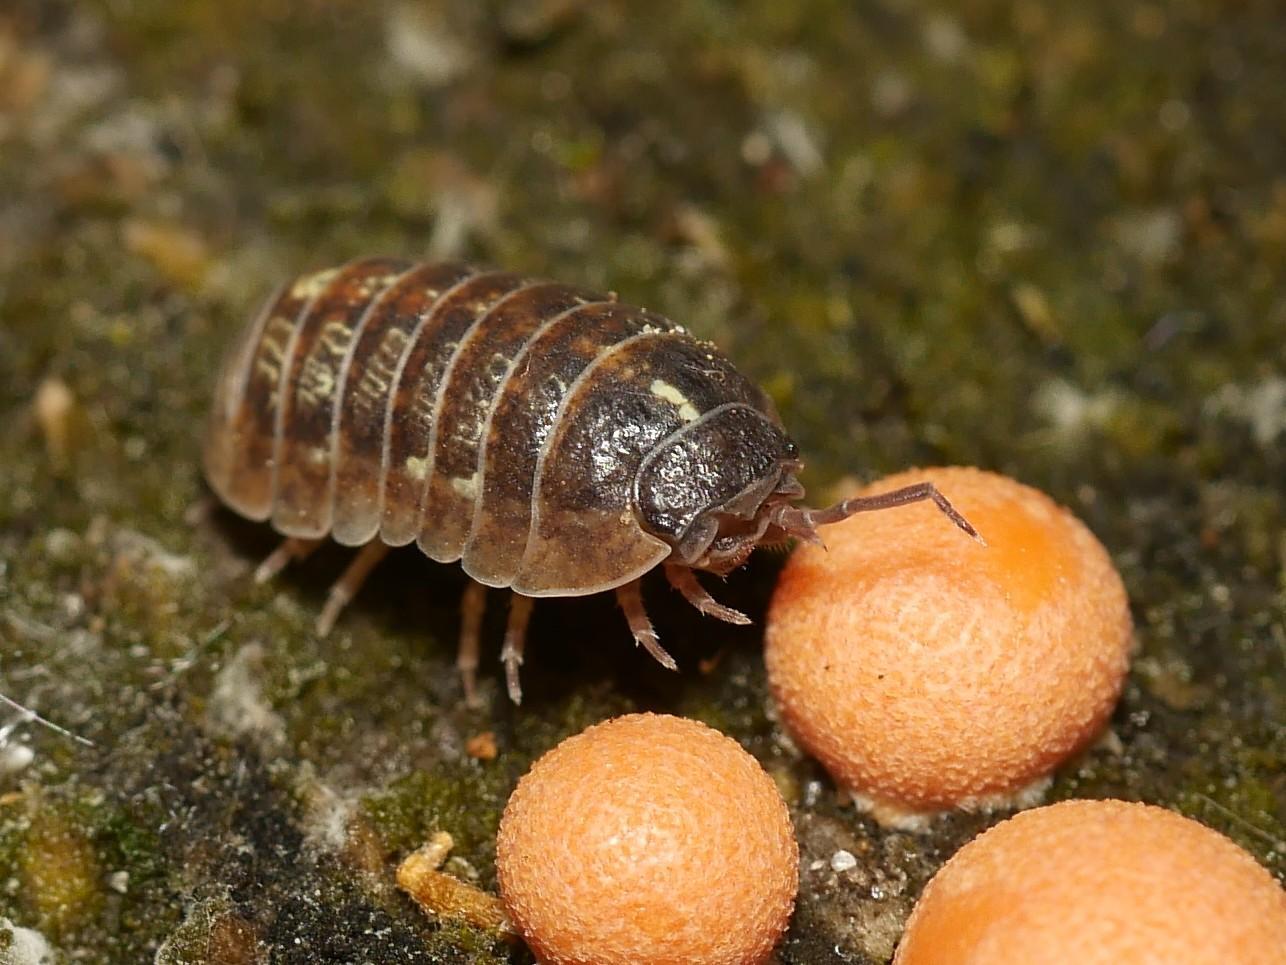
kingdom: Animalia
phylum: Arthropoda
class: Malacostraca
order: Isopoda
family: Armadillidiidae
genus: Armadillidium
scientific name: Armadillidium vulgare
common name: Common pill woodlouse
